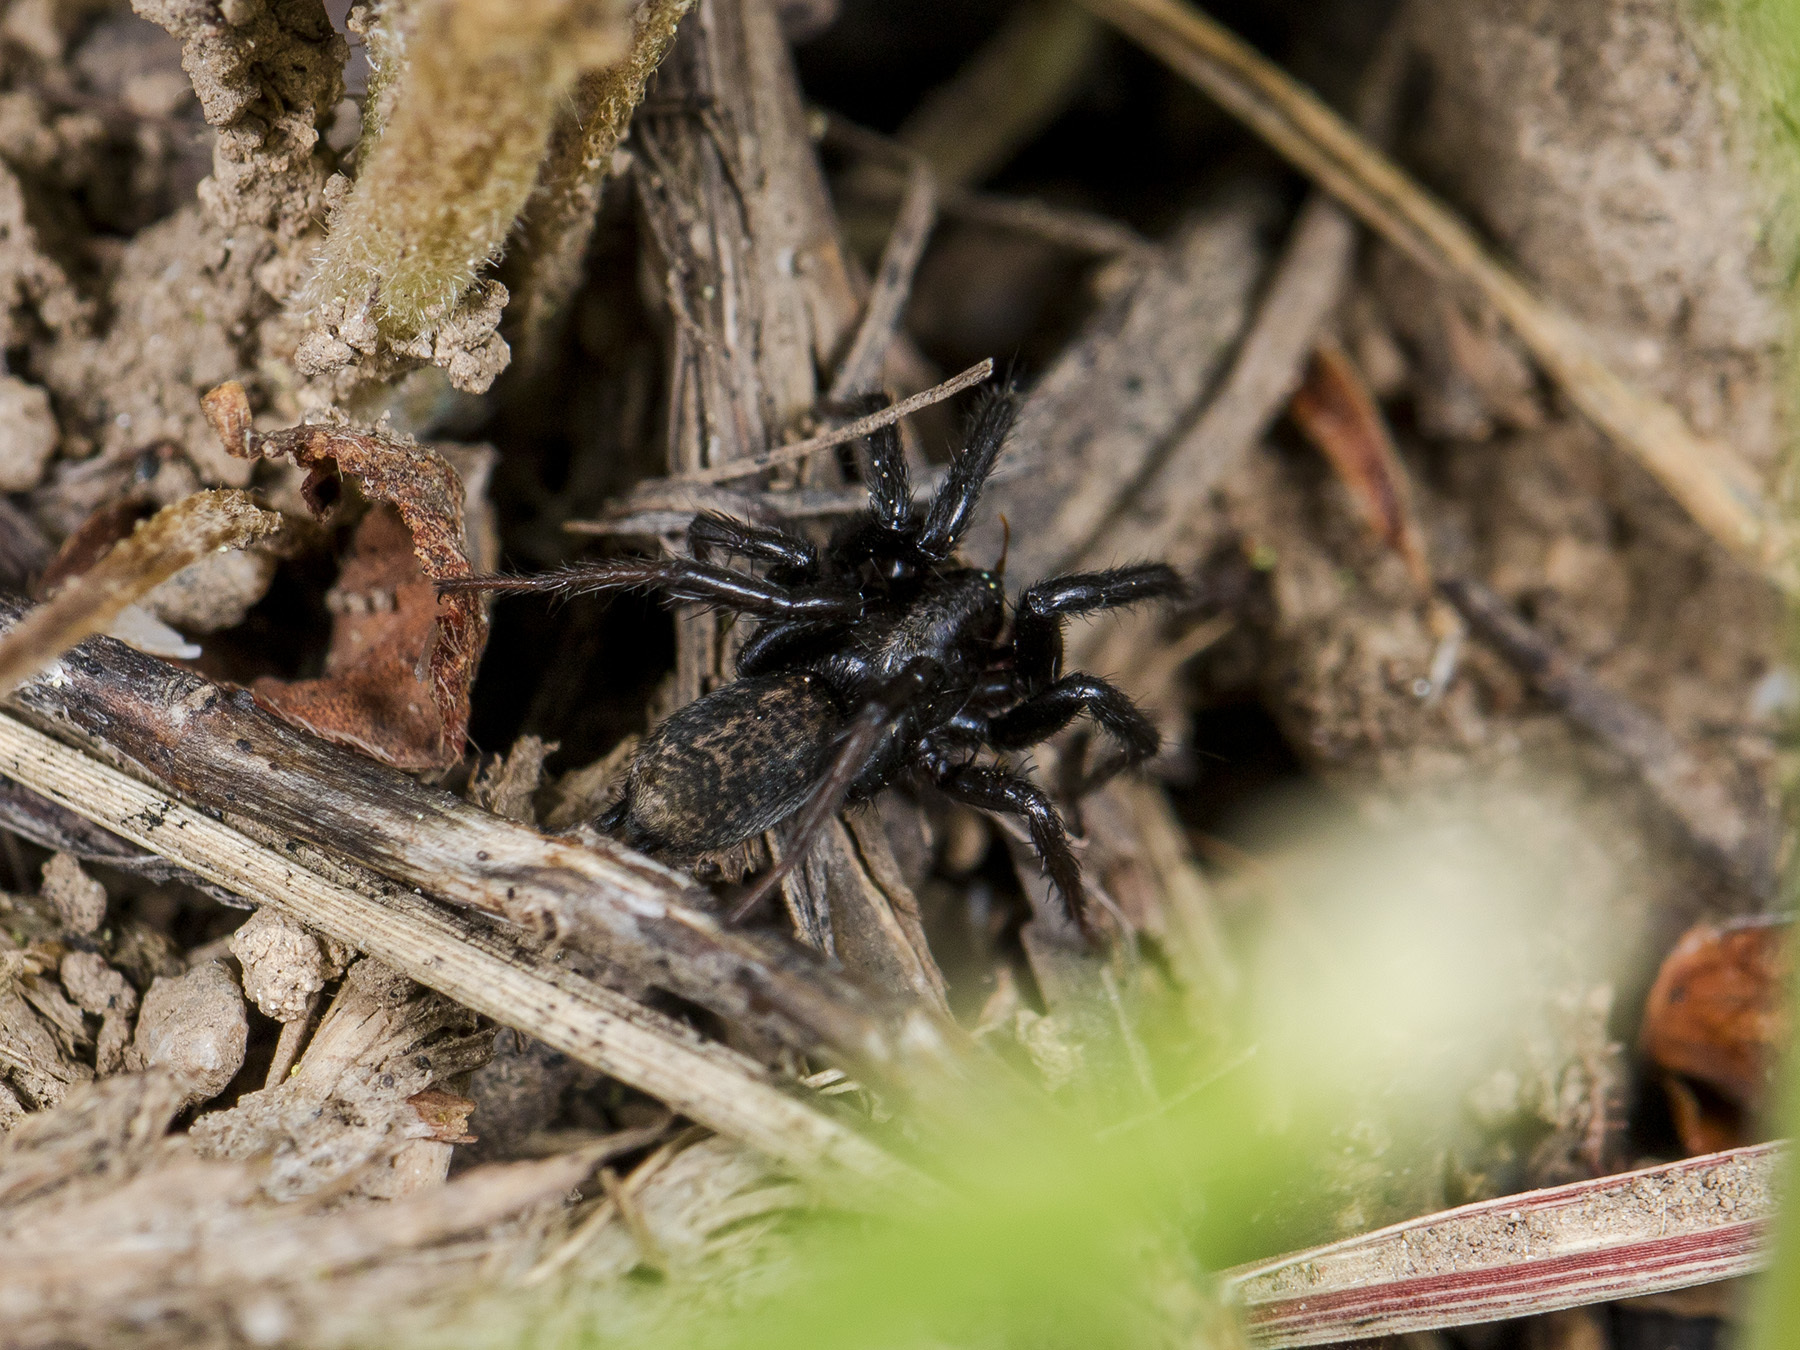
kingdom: Animalia
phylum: Arthropoda
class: Arachnida
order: Araneae
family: Gnaphosidae
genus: Gnaphosa
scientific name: Gnaphosa licenti
